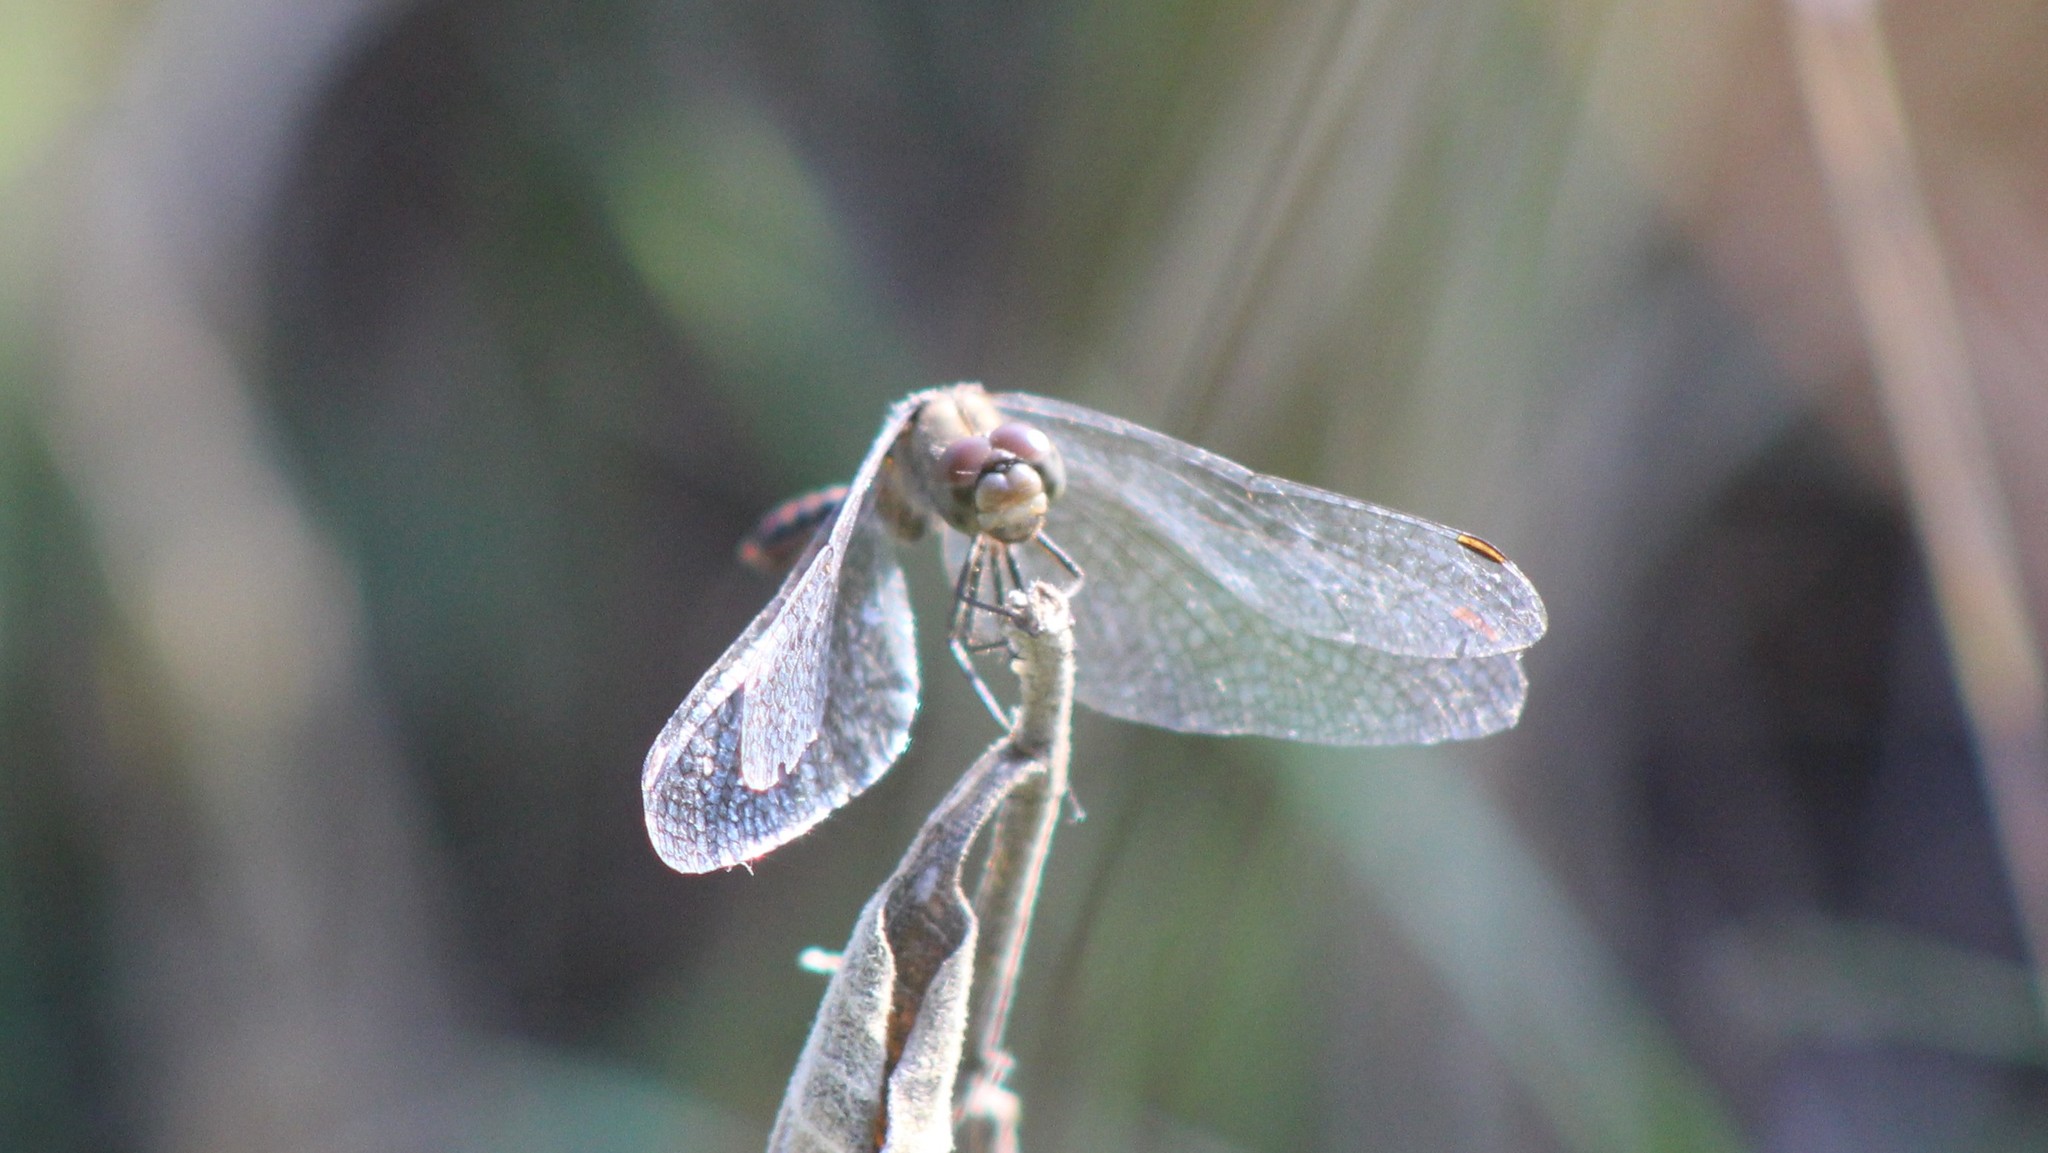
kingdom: Animalia
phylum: Arthropoda
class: Insecta
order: Odonata
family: Libellulidae
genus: Sympetrum
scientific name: Sympetrum
